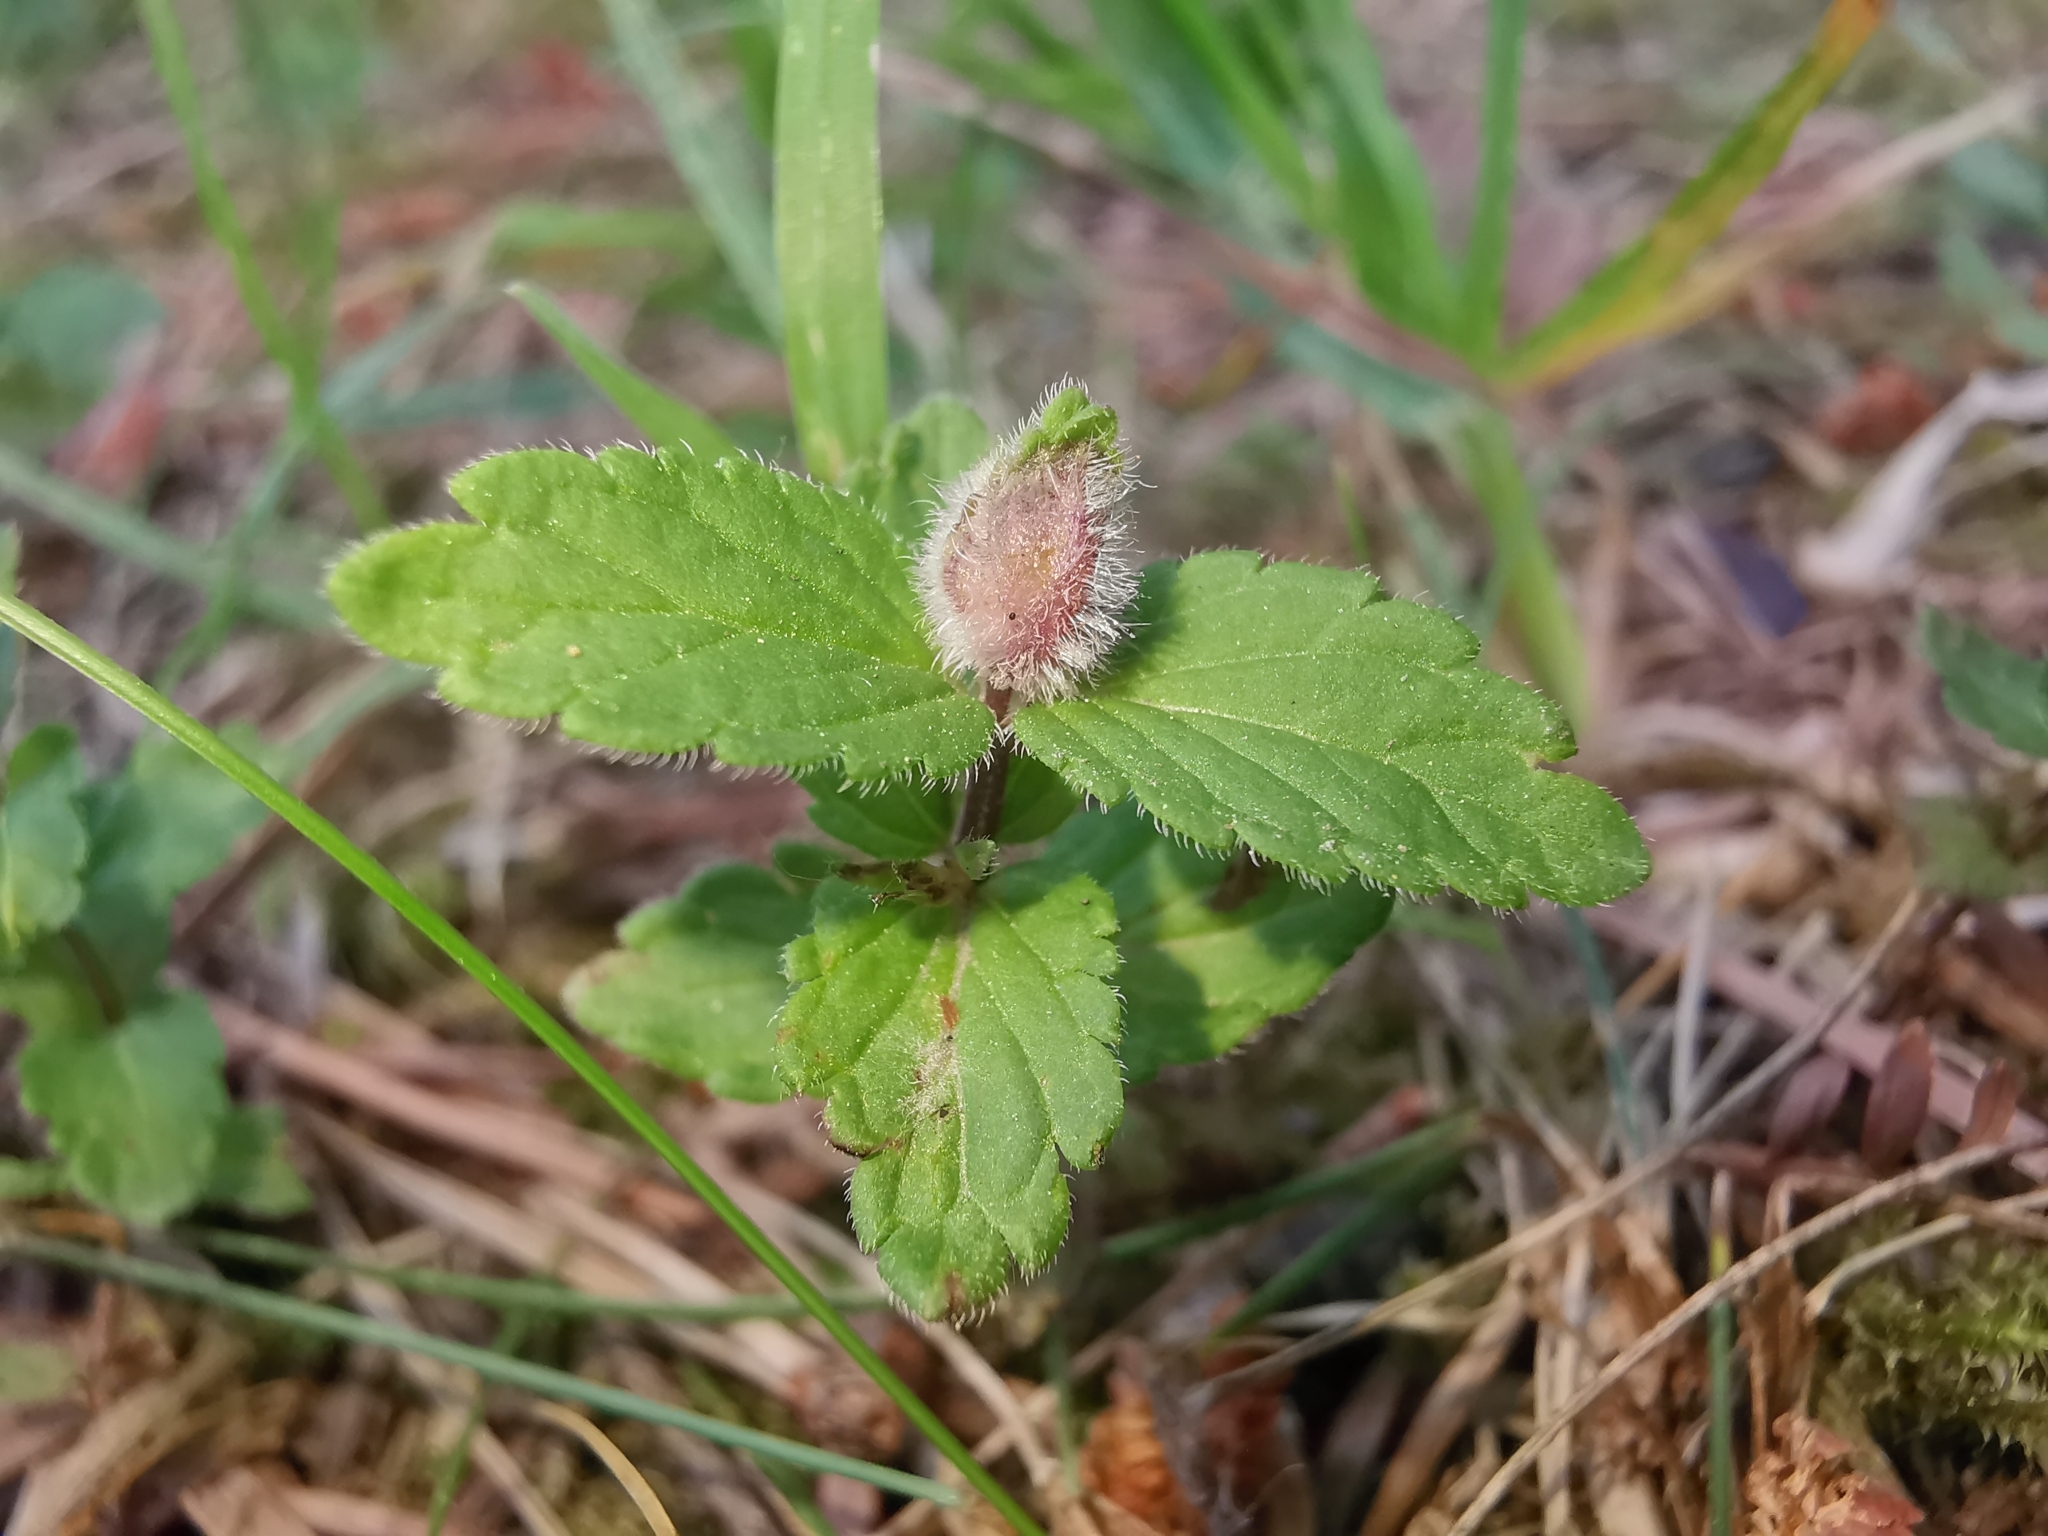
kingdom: Animalia
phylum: Arthropoda
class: Insecta
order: Diptera
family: Cecidomyiidae
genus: Jaapiella
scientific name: Jaapiella veronicae
